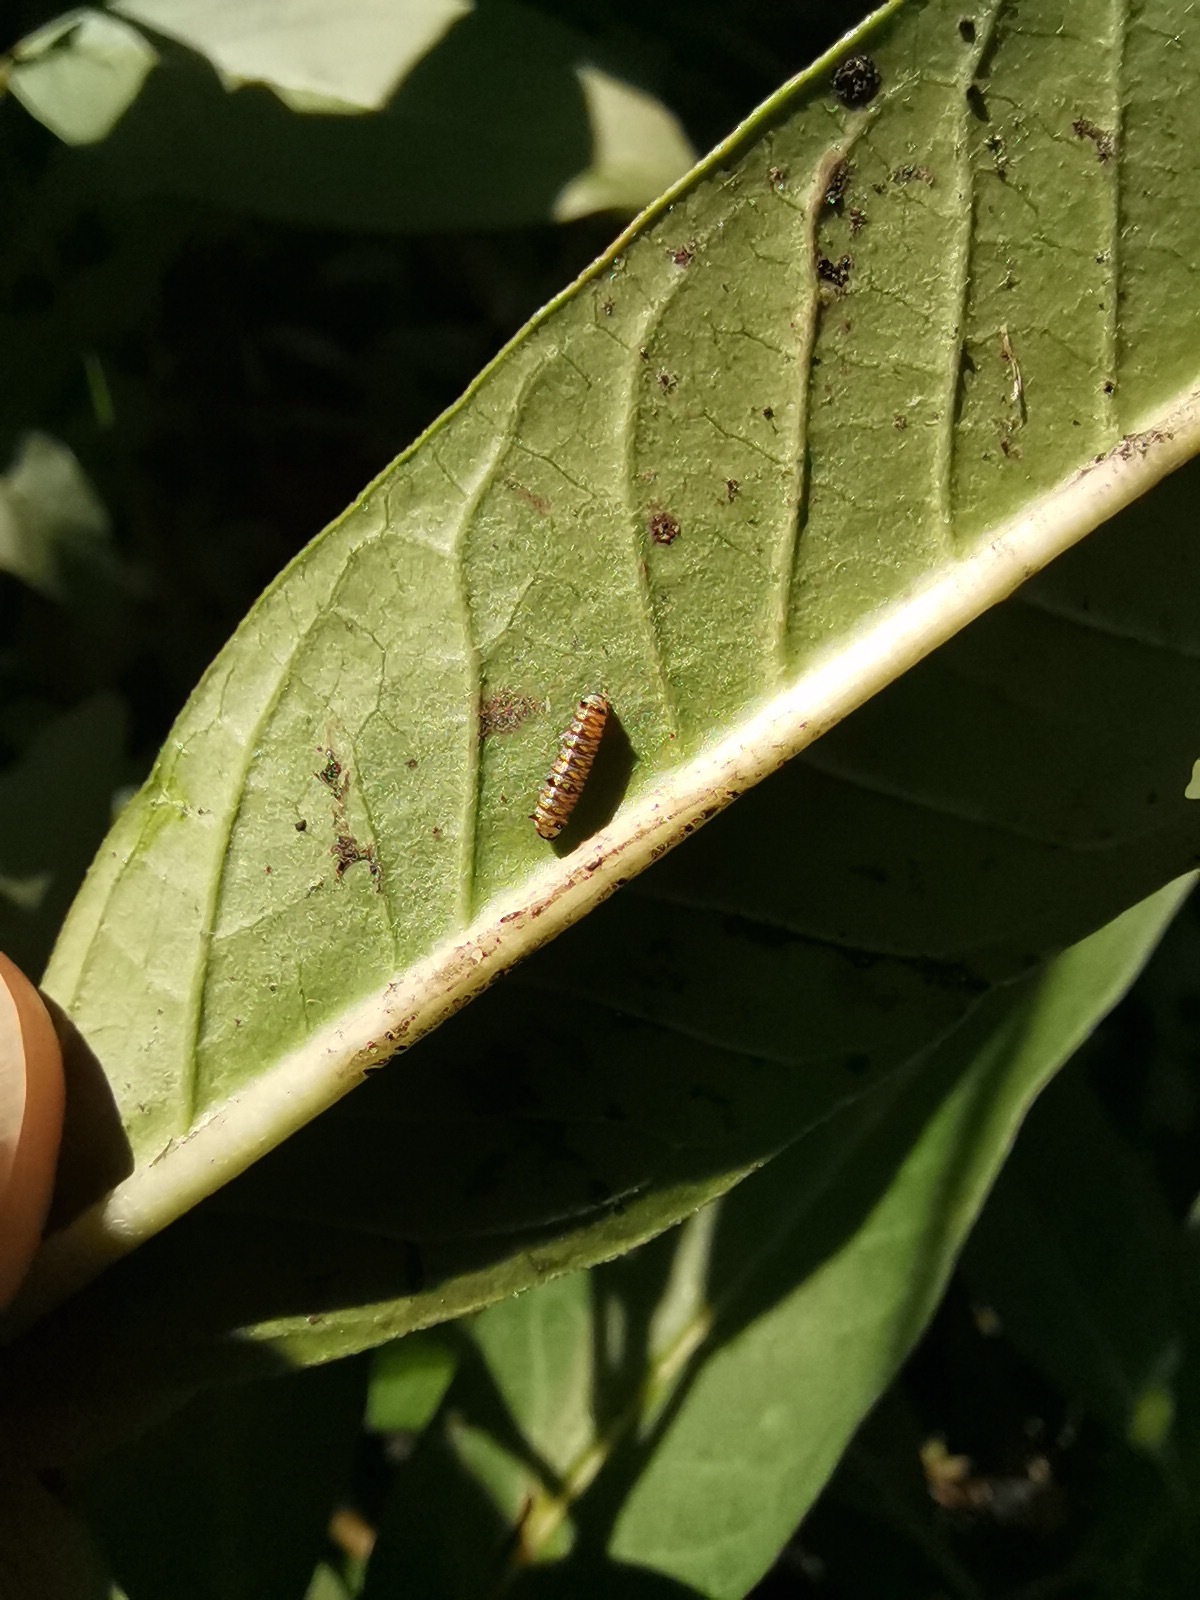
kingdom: Animalia
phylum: Arthropoda
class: Insecta
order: Lepidoptera
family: Nymphalidae
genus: Danaus
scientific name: Danaus gilippus
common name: Queen
